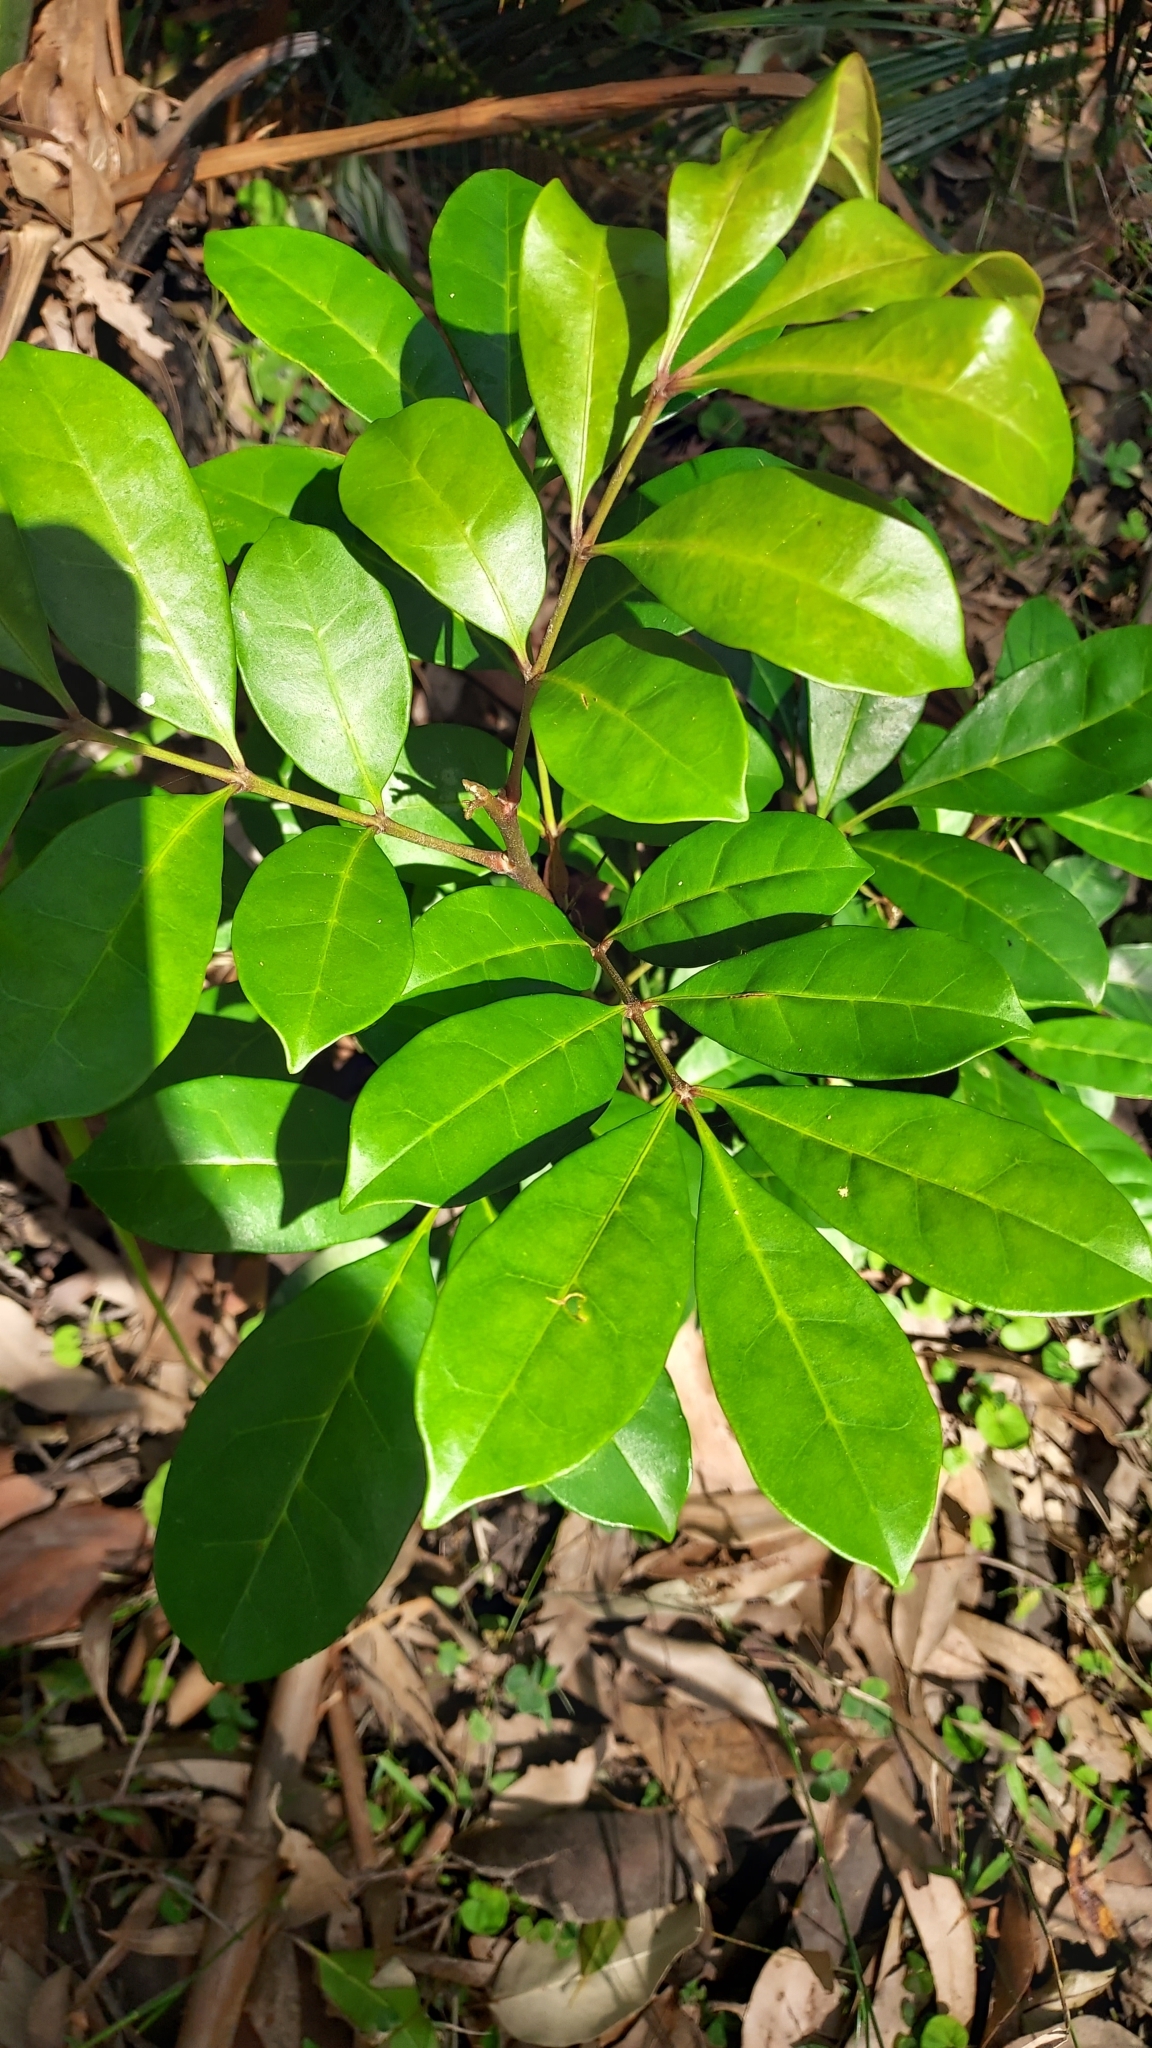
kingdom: Plantae
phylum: Tracheophyta
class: Magnoliopsida
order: Sapindales
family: Meliaceae
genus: Synoum
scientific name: Synoum glandulosum
